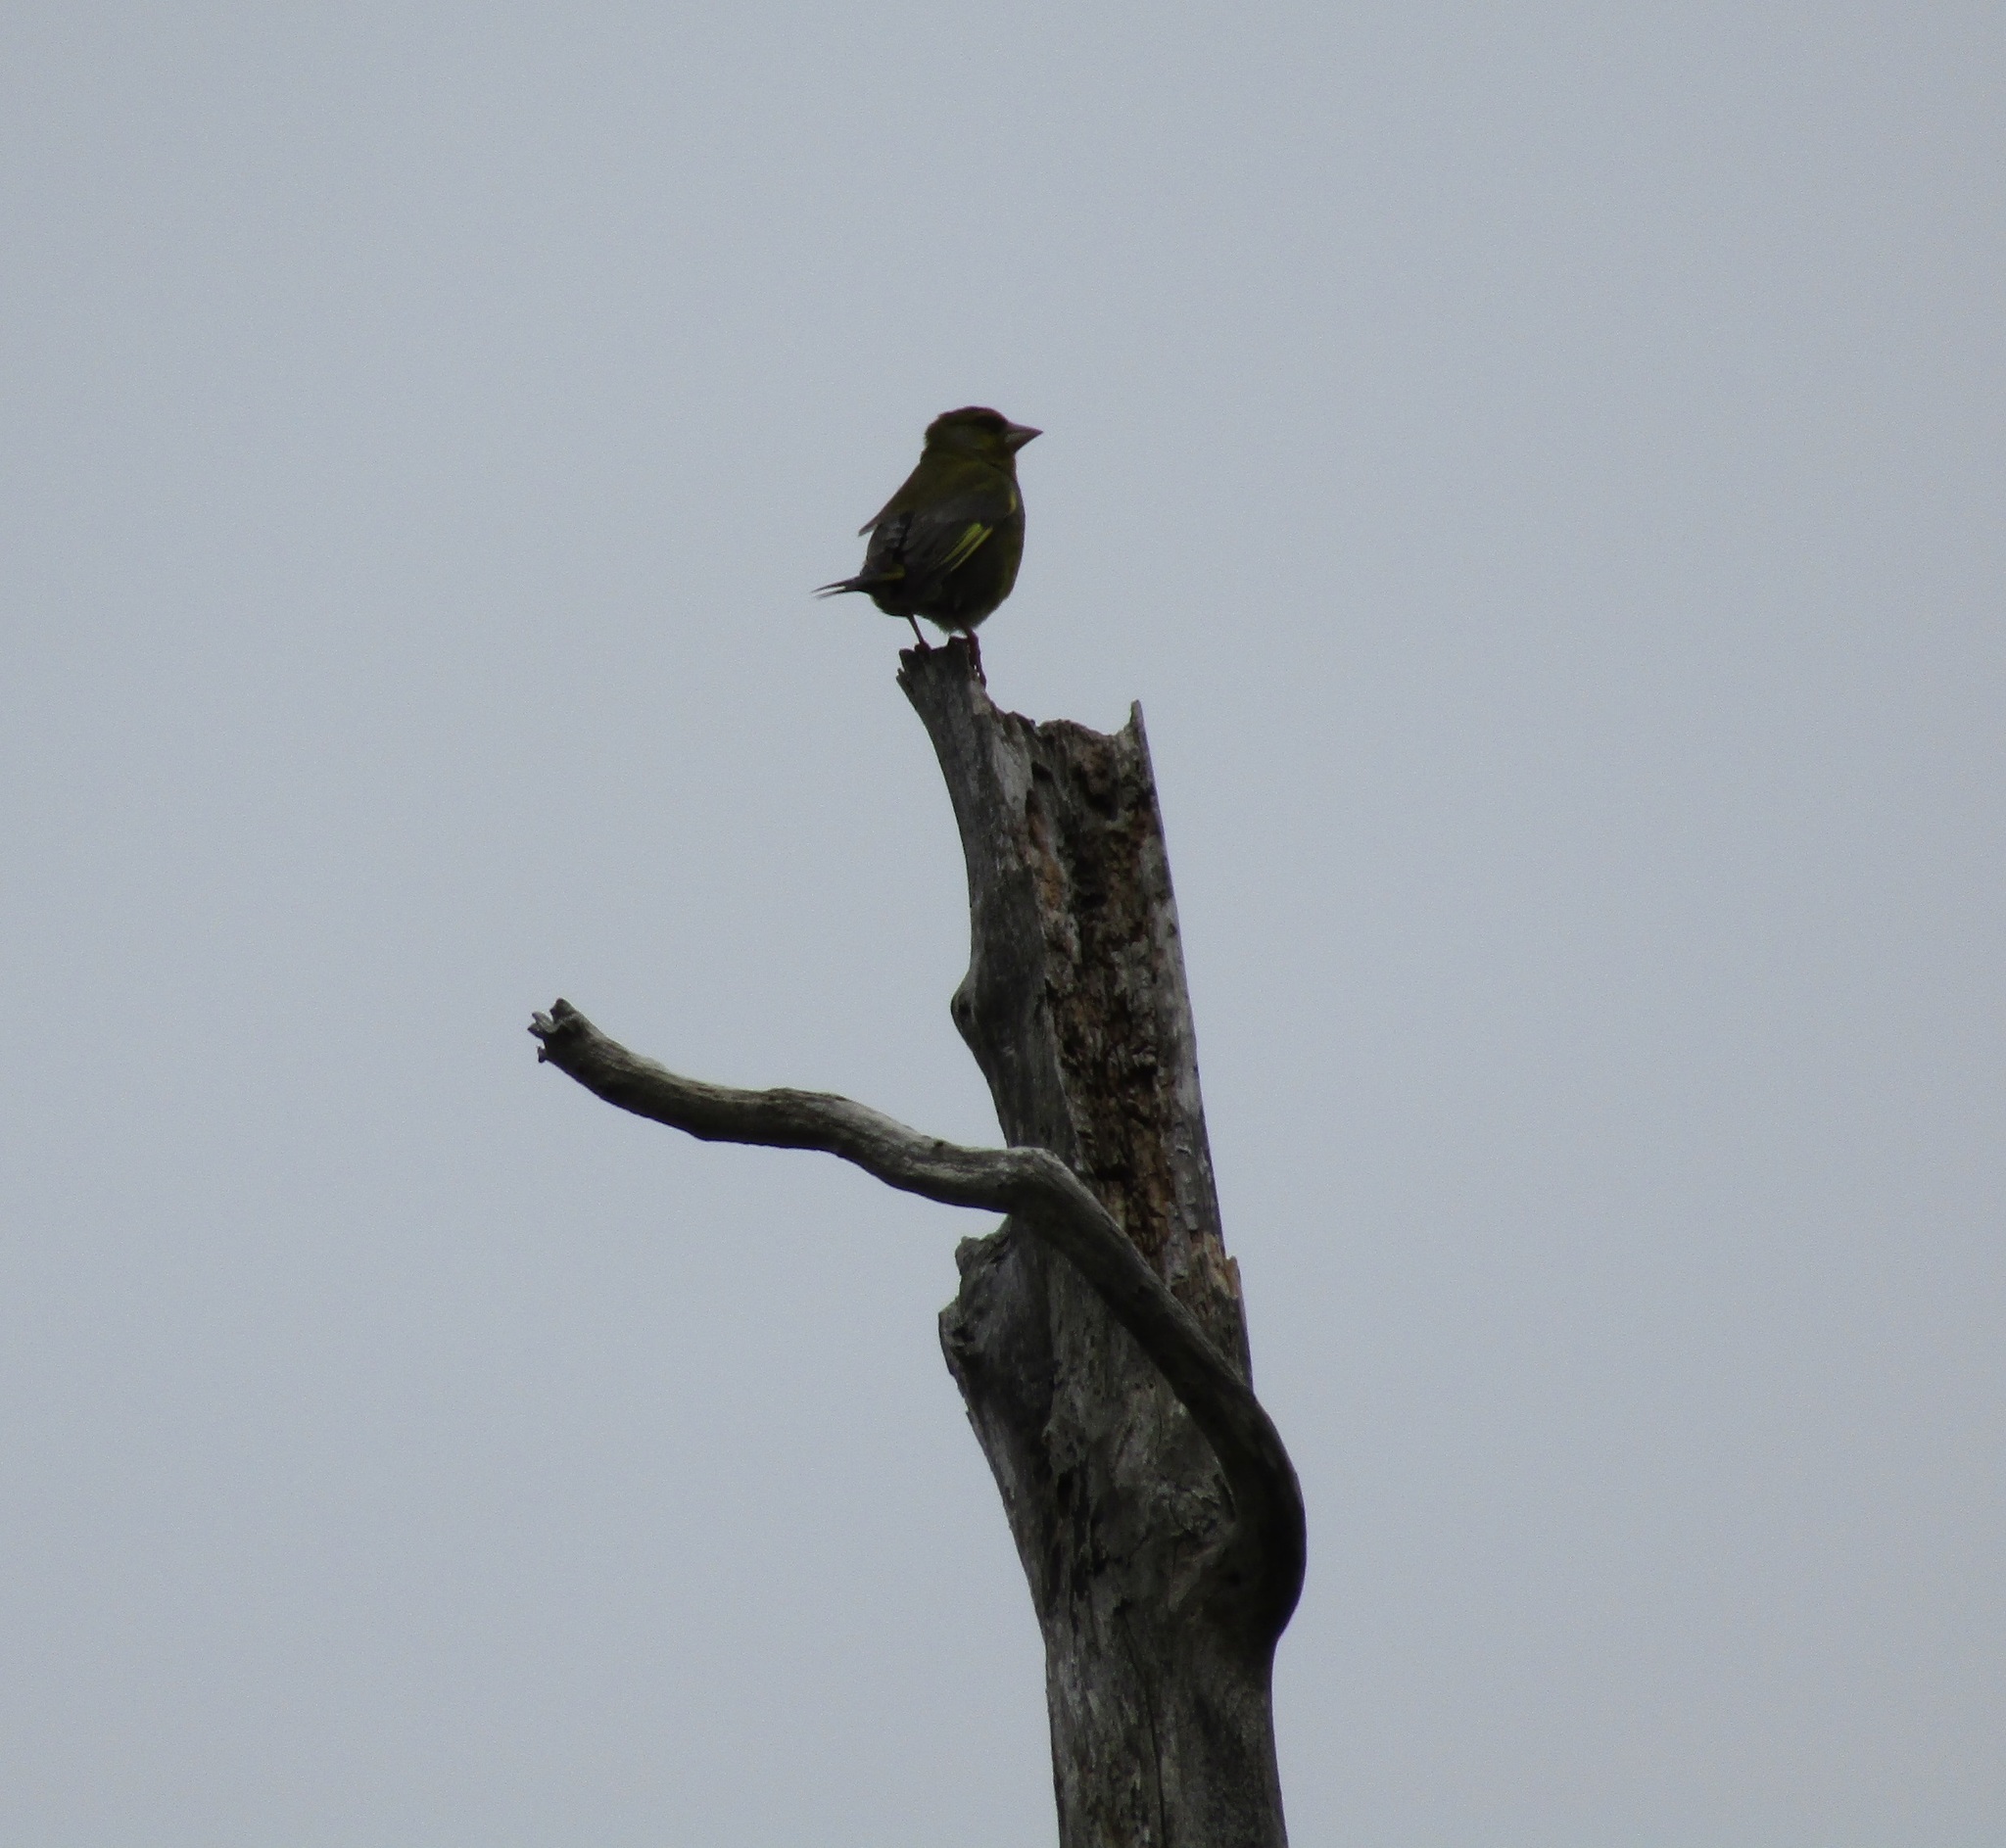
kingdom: Plantae
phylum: Tracheophyta
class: Liliopsida
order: Poales
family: Poaceae
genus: Chloris
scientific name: Chloris chloris
